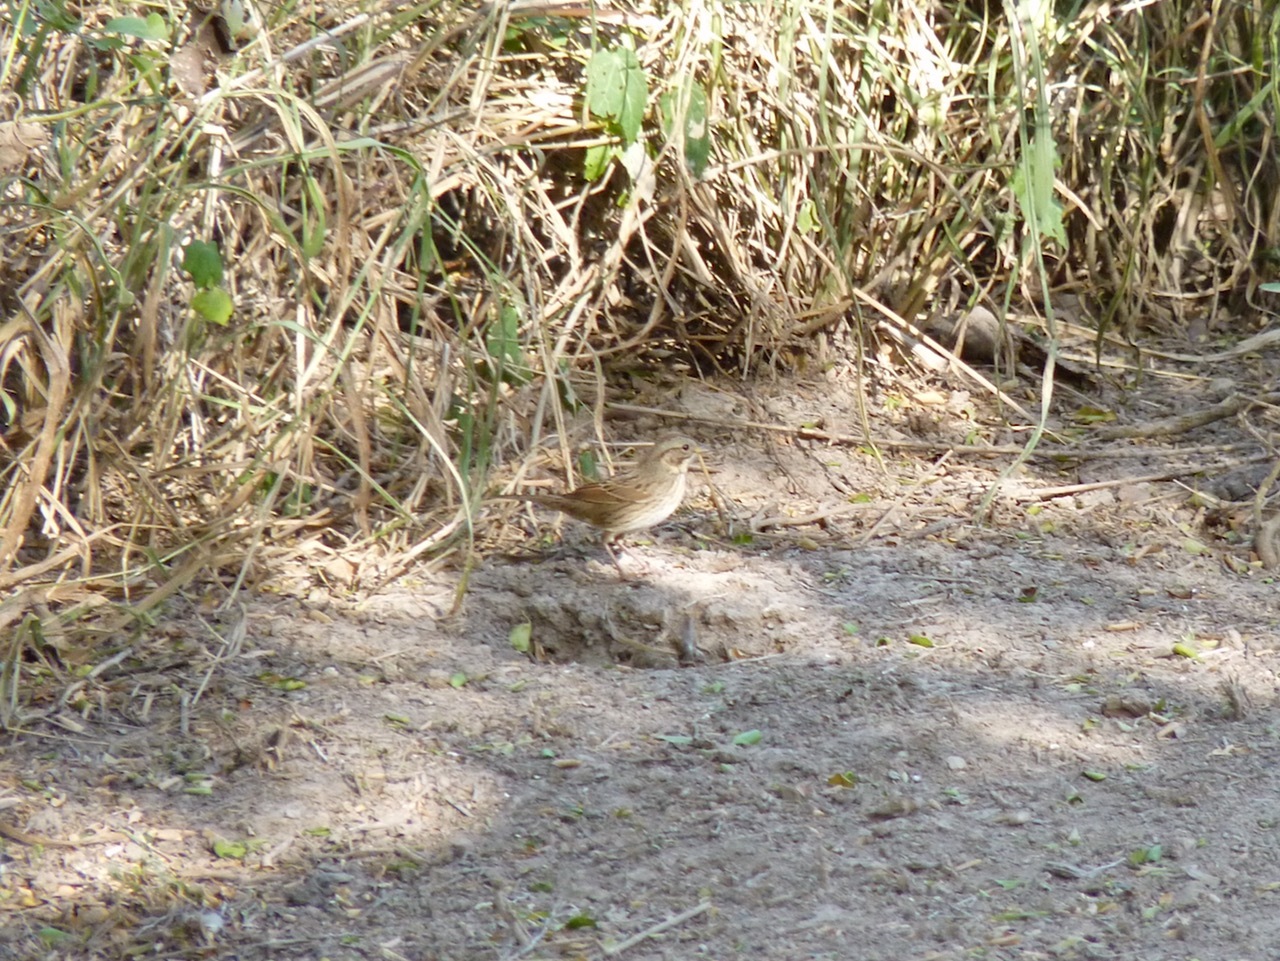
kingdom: Animalia
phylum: Chordata
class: Aves
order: Passeriformes
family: Passerellidae
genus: Melospiza
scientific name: Melospiza lincolnii
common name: Lincoln's sparrow
